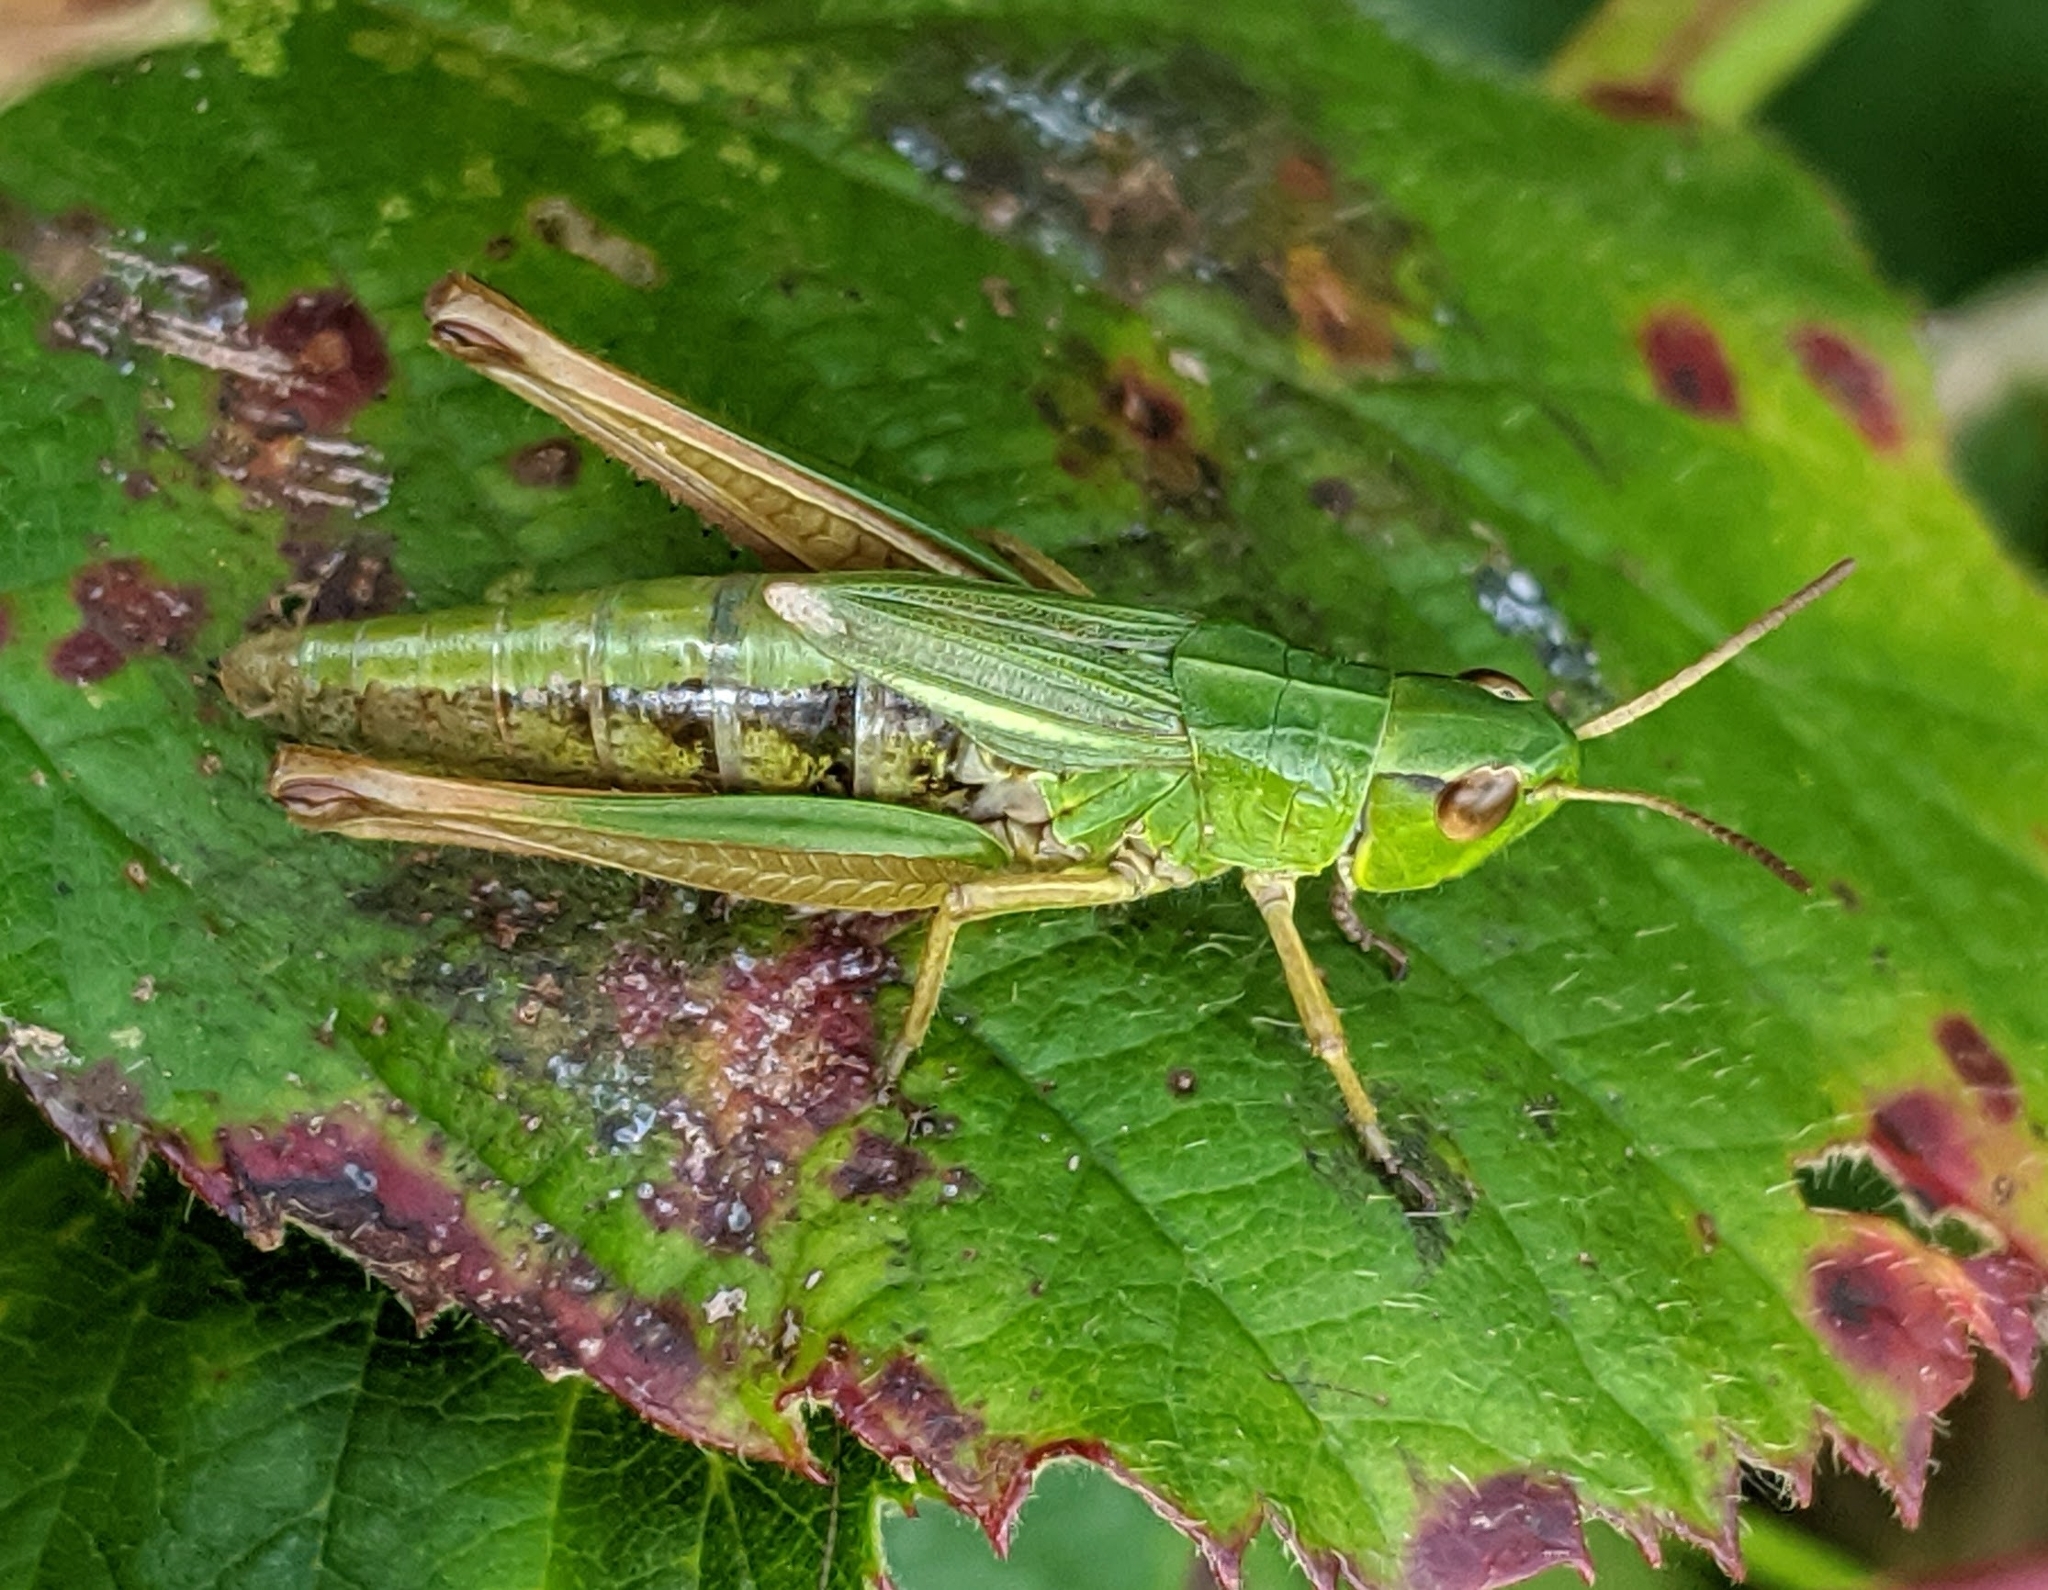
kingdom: Animalia
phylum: Arthropoda
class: Insecta
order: Orthoptera
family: Acrididae
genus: Pseudochorthippus
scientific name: Pseudochorthippus parallelus
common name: Meadow grasshopper
